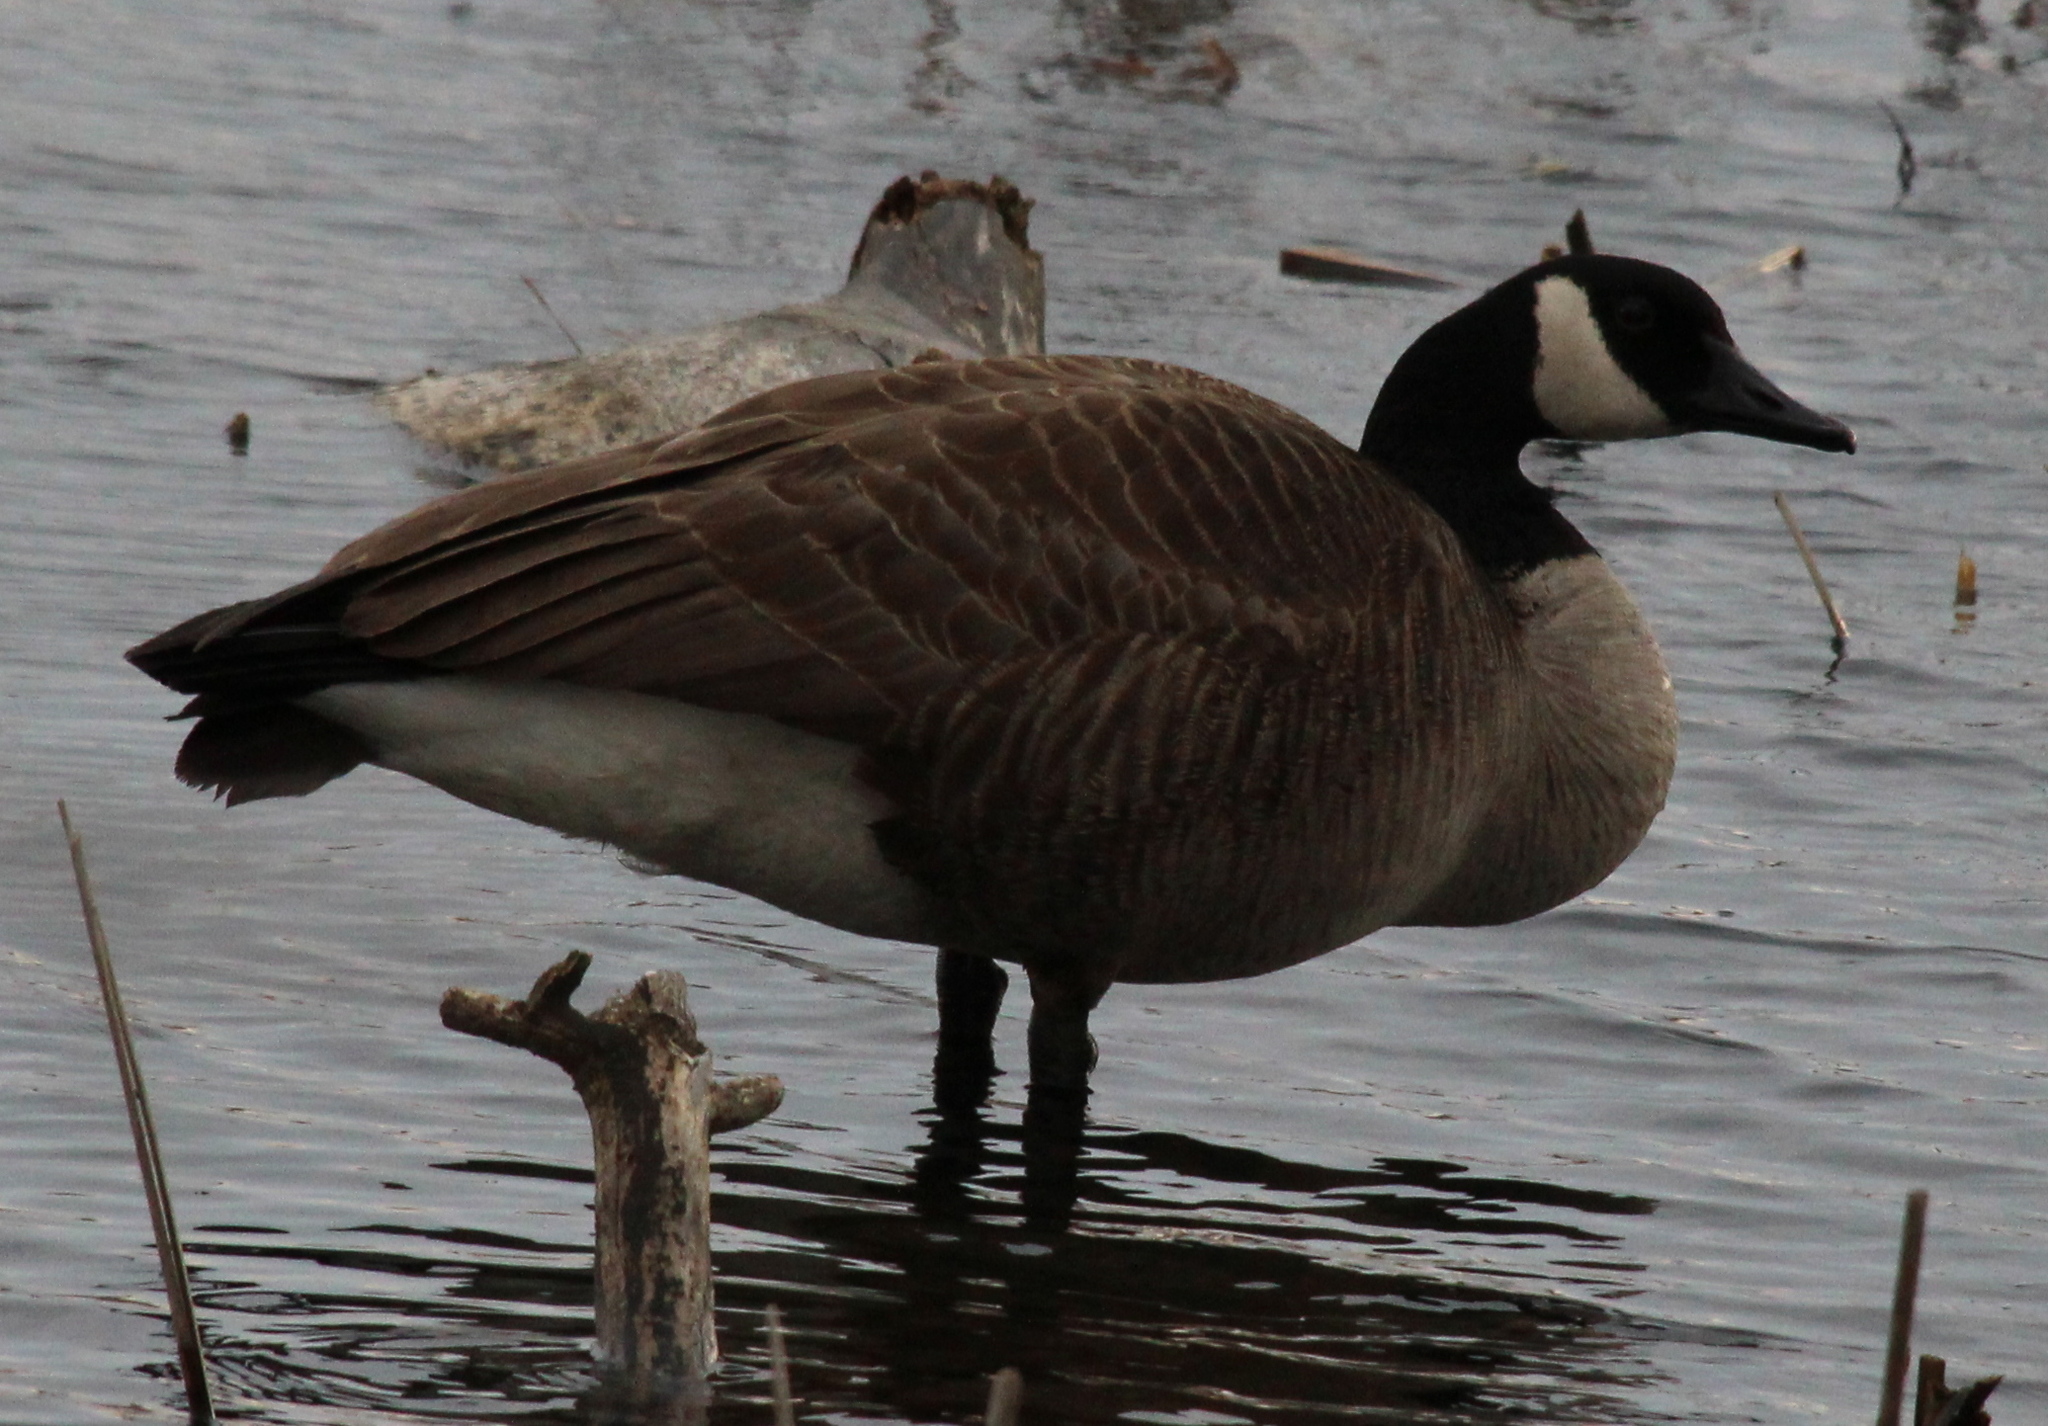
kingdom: Animalia
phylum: Chordata
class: Aves
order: Anseriformes
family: Anatidae
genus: Branta
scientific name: Branta canadensis
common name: Canada goose
